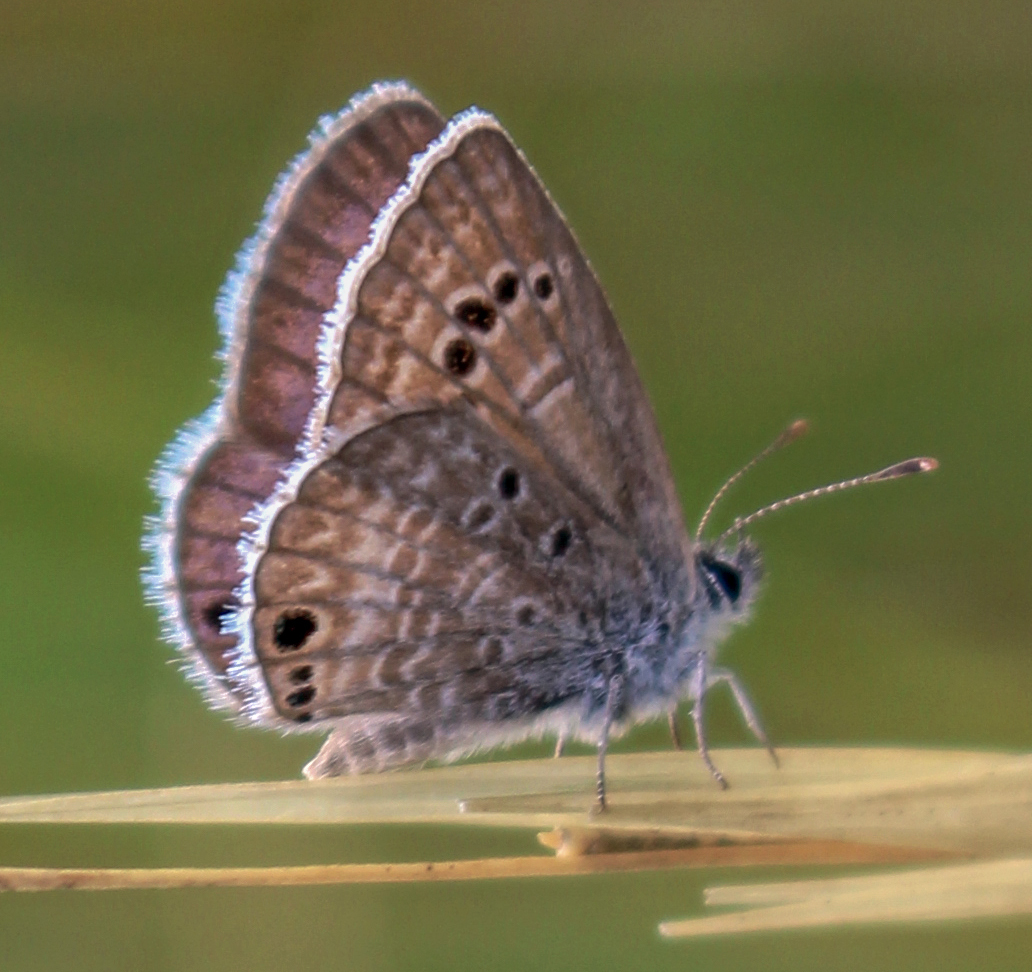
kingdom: Animalia
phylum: Arthropoda
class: Insecta
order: Lepidoptera
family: Lycaenidae
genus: Echinargus
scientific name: Echinargus isola
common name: Reakirt's blue
